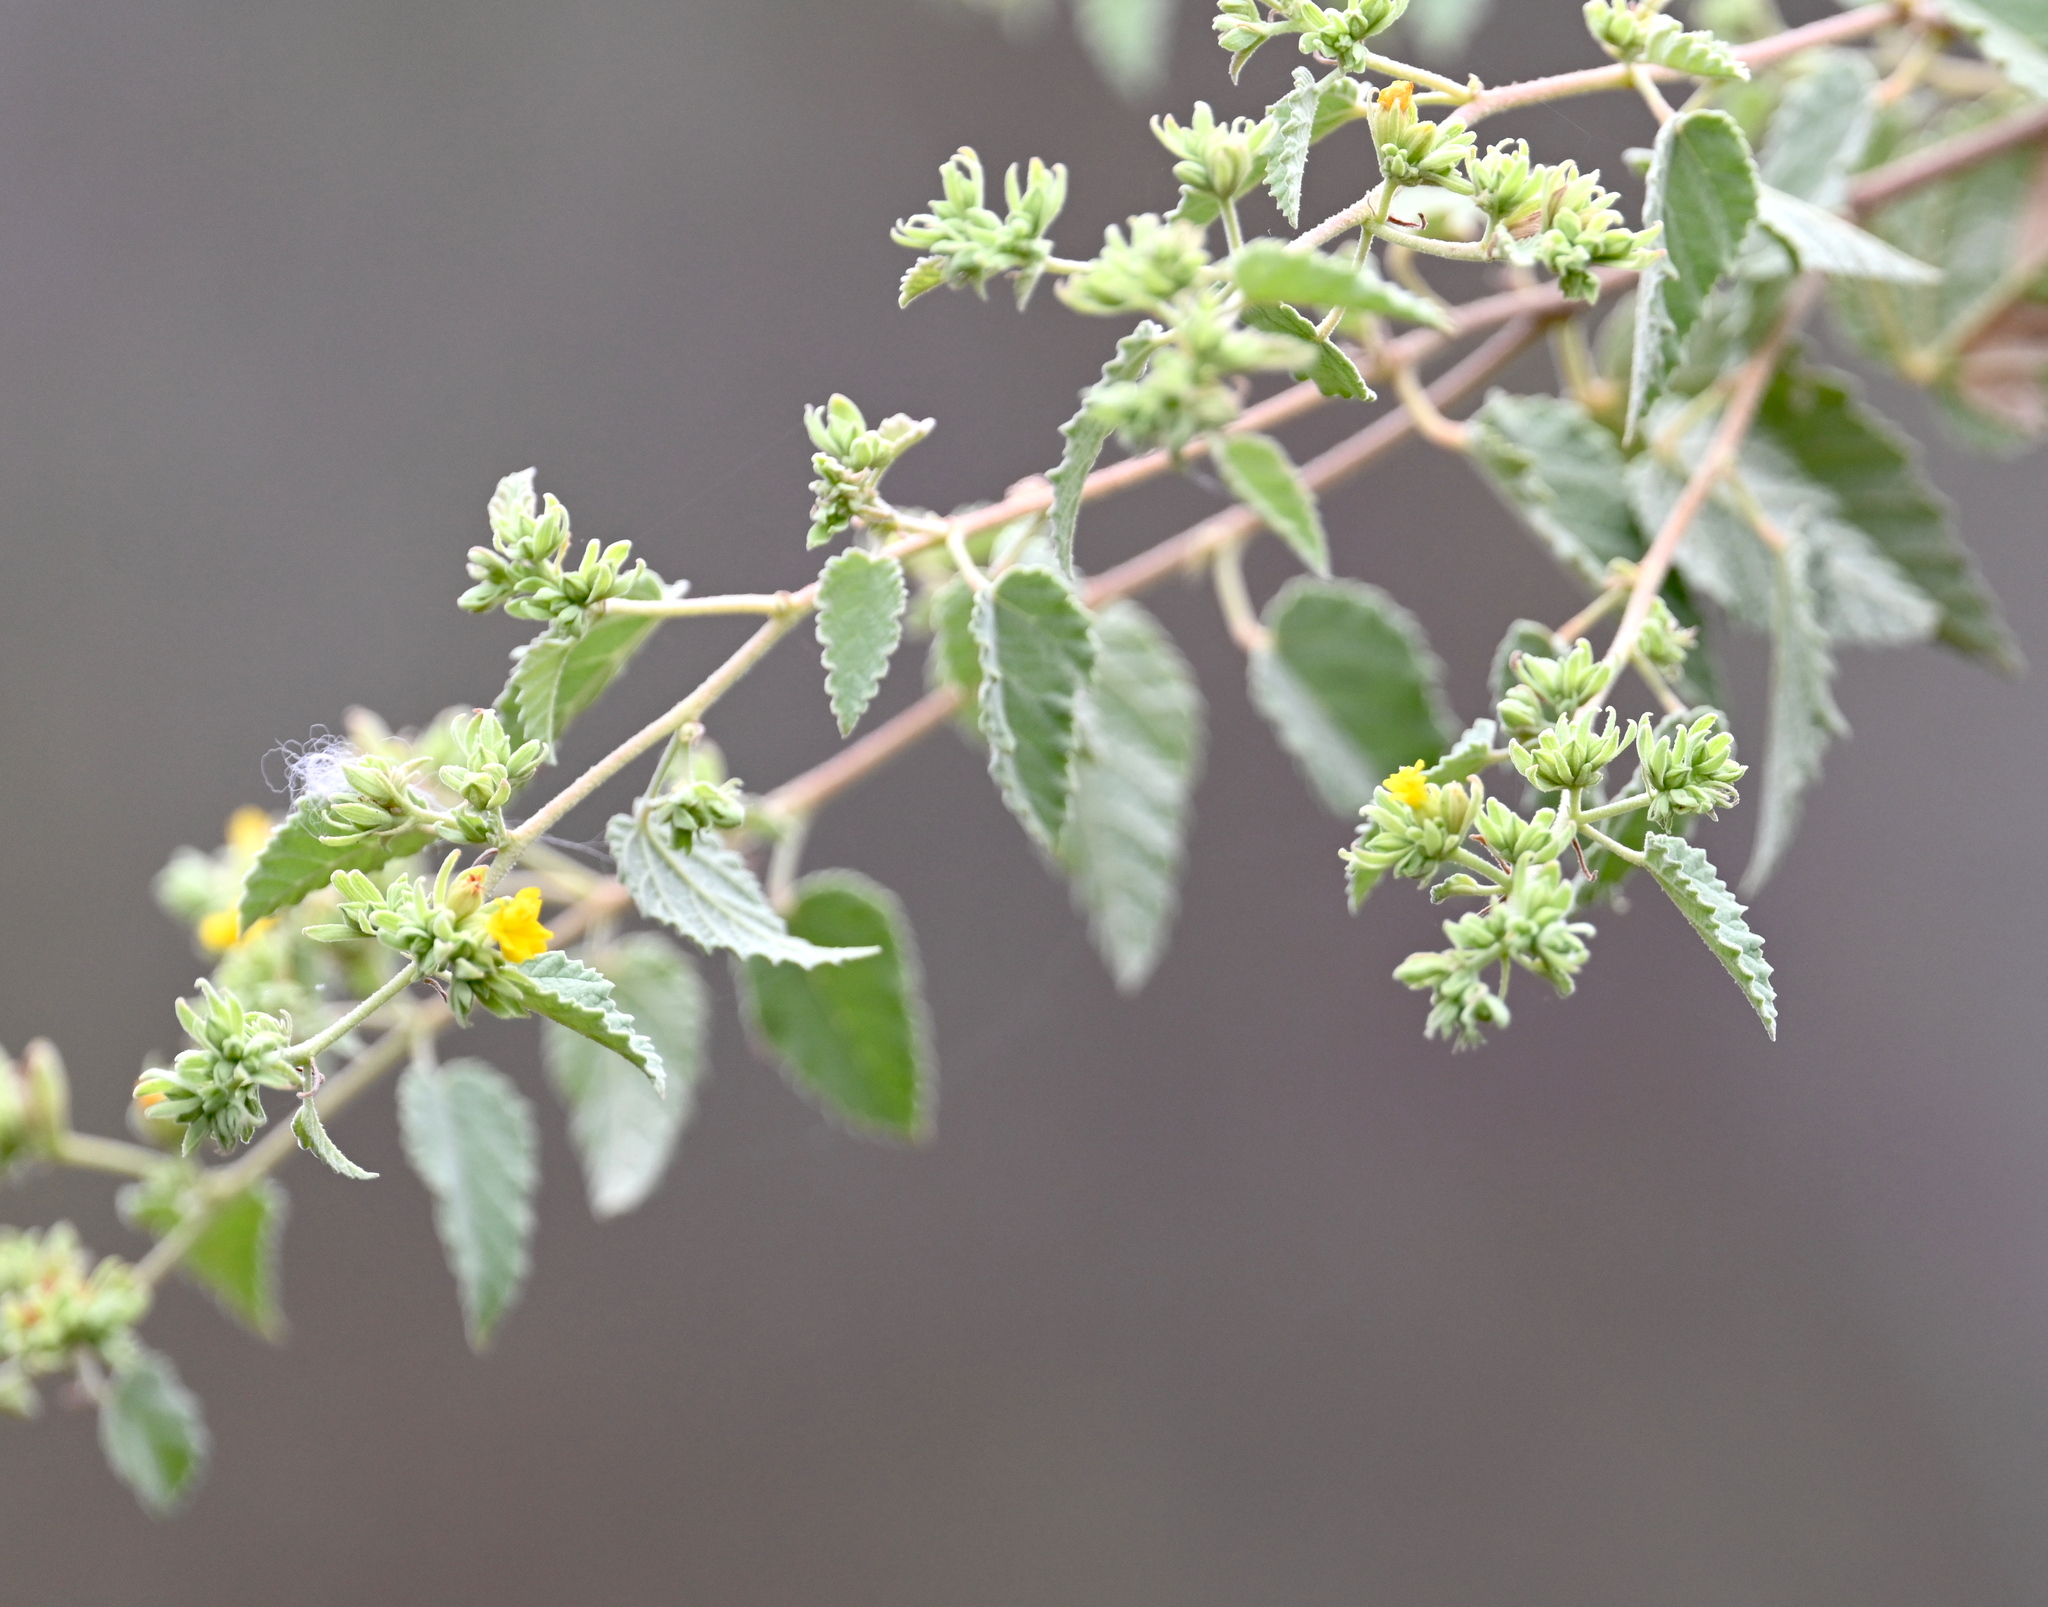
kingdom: Plantae
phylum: Tracheophyta
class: Magnoliopsida
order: Malvales
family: Malvaceae
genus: Waltheria
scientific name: Waltheria ovata
